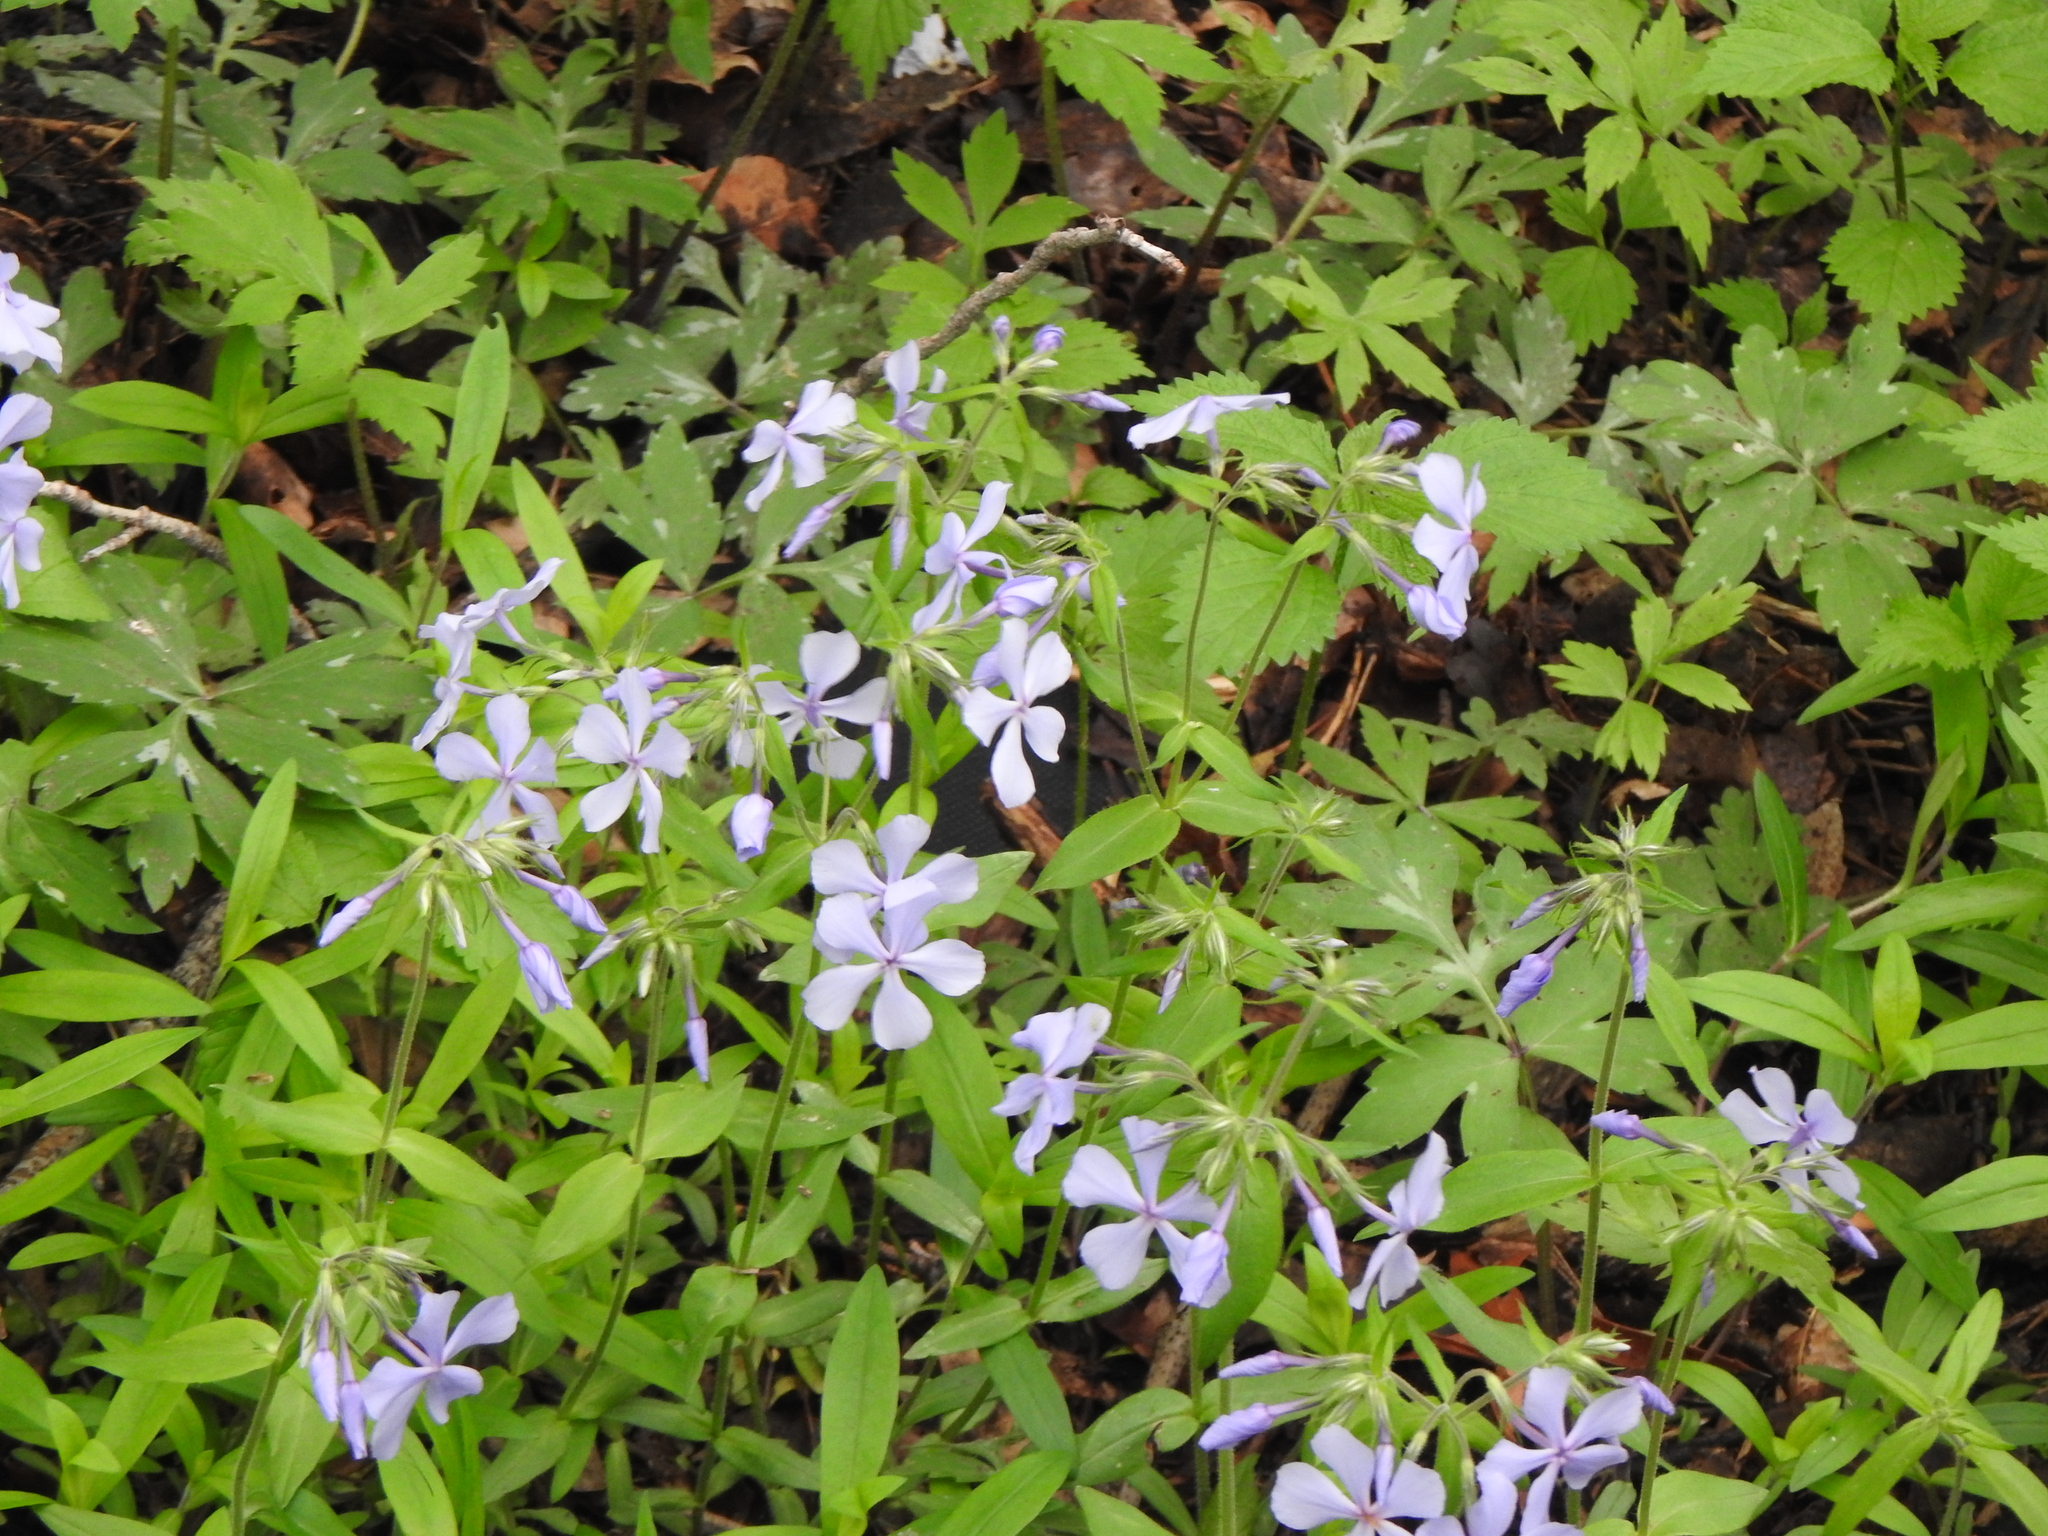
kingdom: Plantae
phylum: Tracheophyta
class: Magnoliopsida
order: Ericales
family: Polemoniaceae
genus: Phlox
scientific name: Phlox divaricata
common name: Blue phlox
